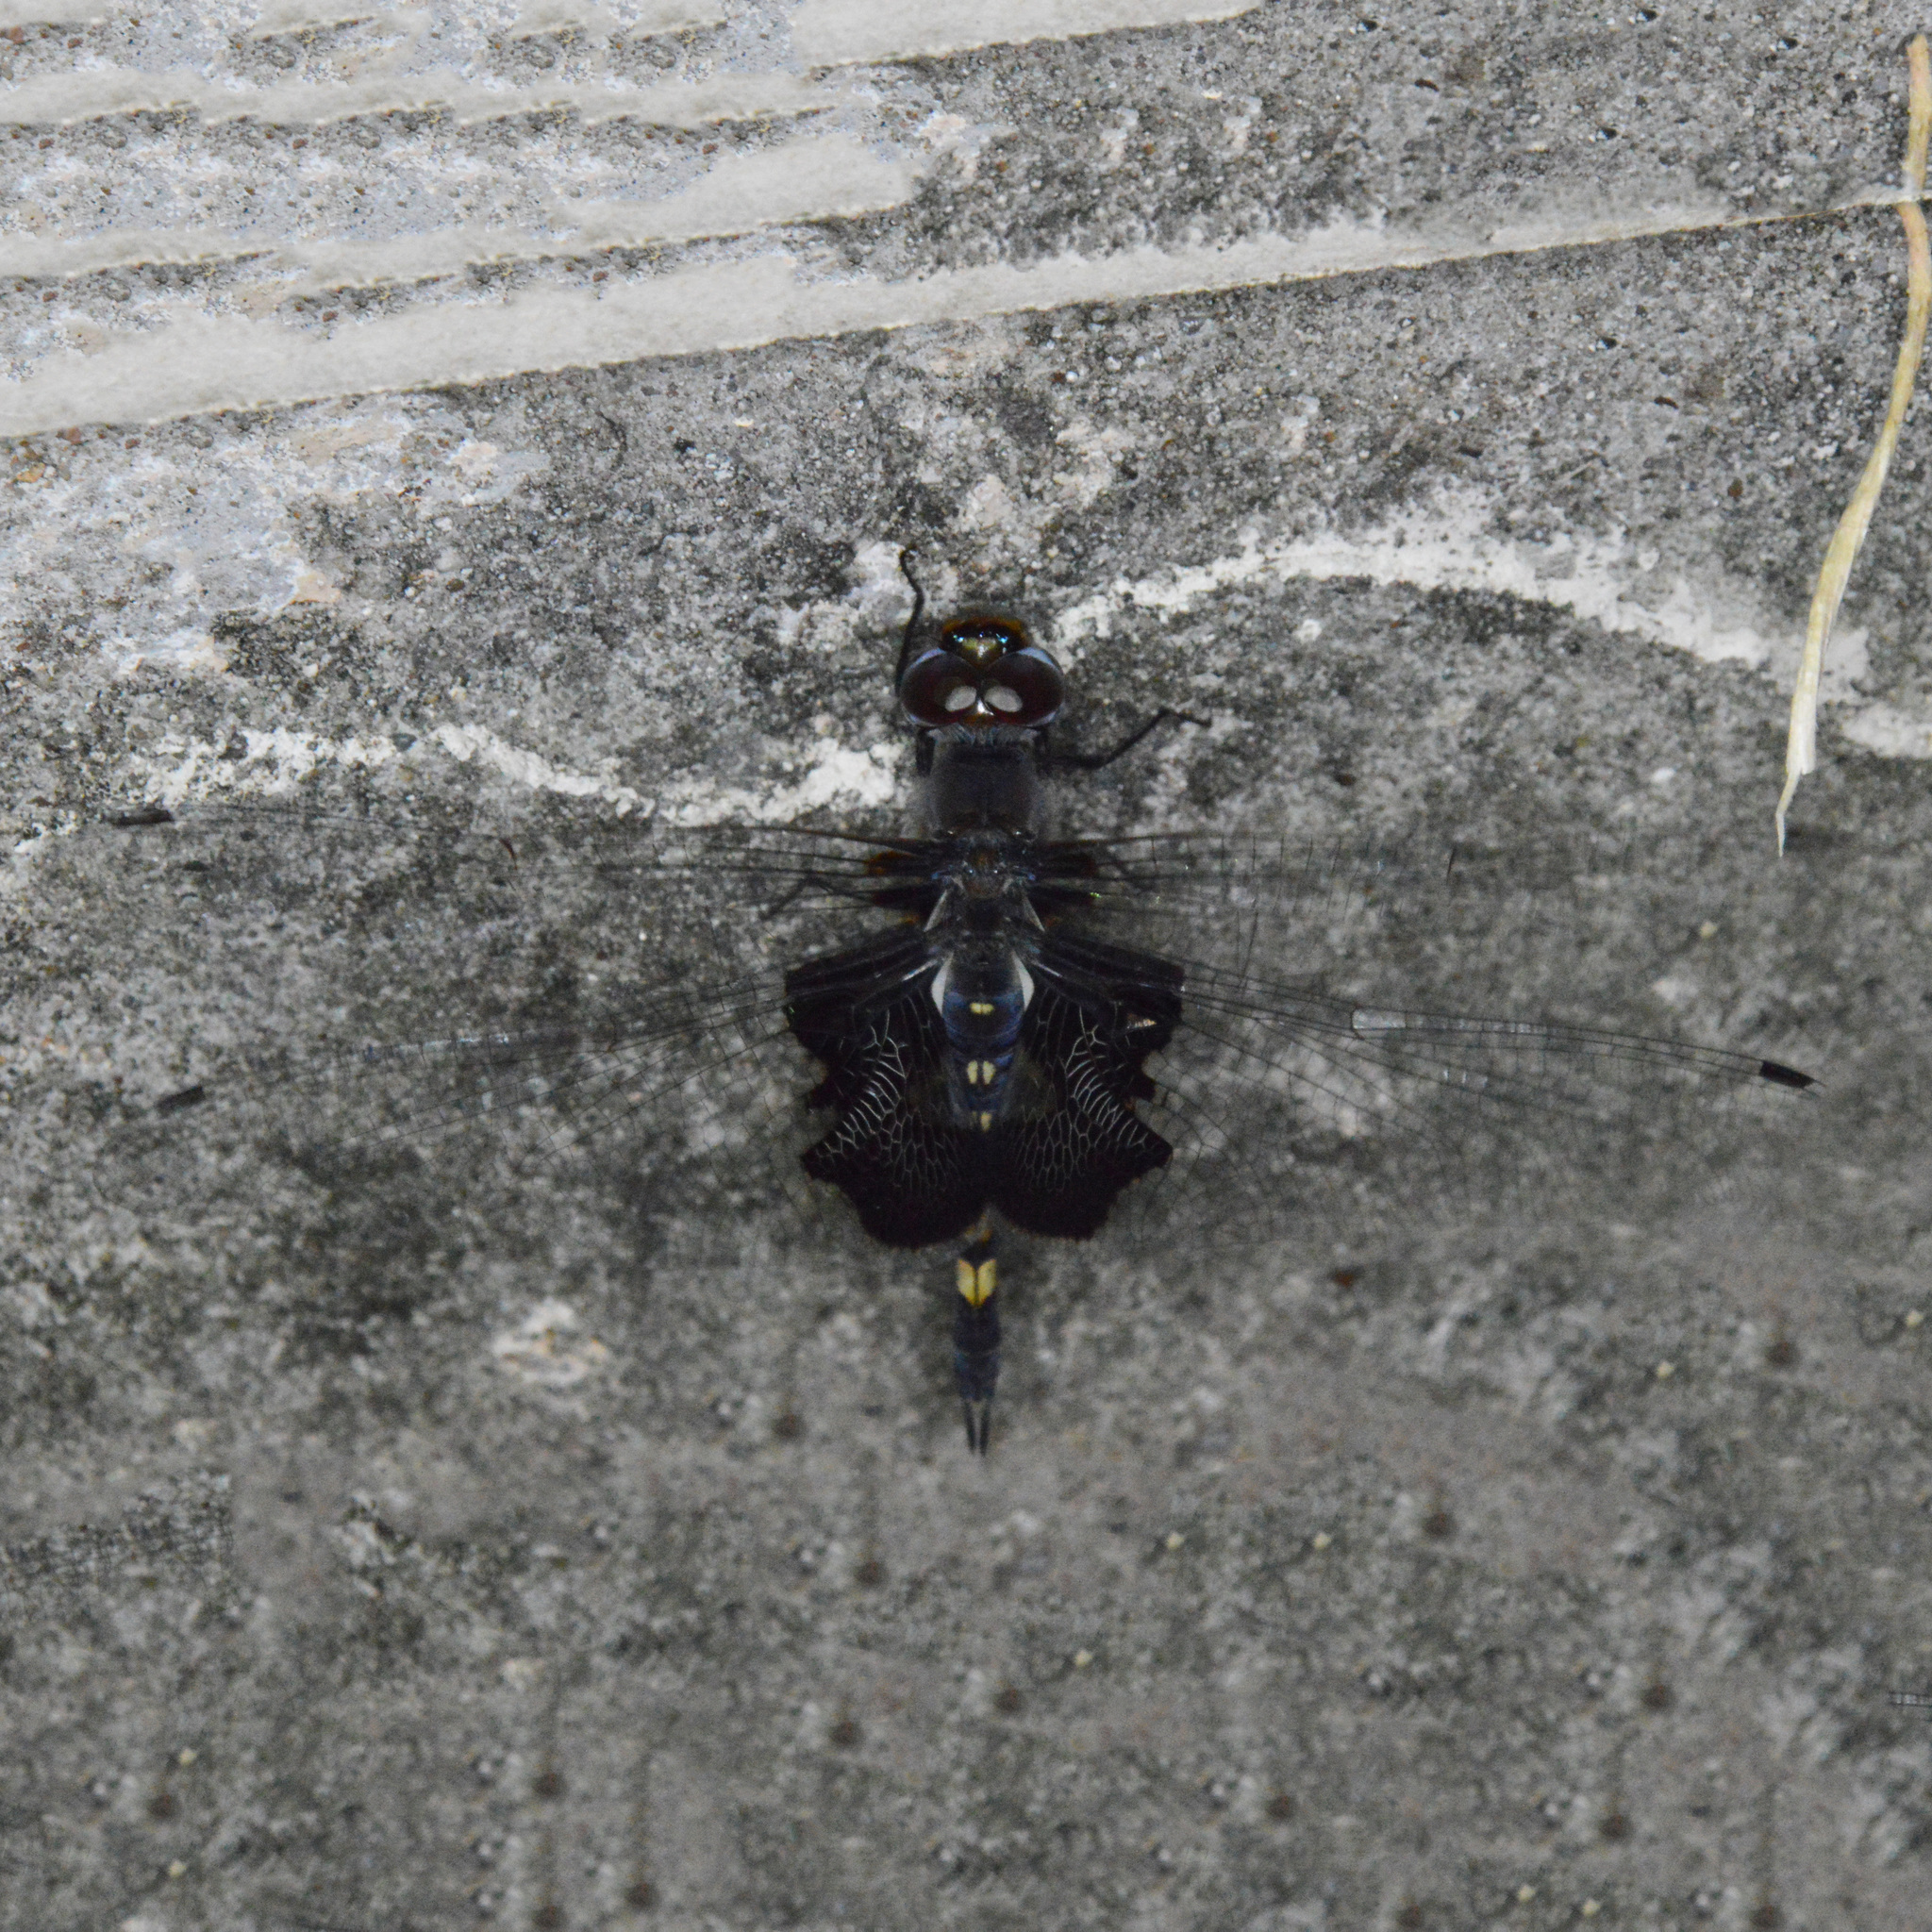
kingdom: Animalia
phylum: Arthropoda
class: Insecta
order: Odonata
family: Libellulidae
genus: Tramea
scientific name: Tramea lacerata
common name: Black saddlebags
